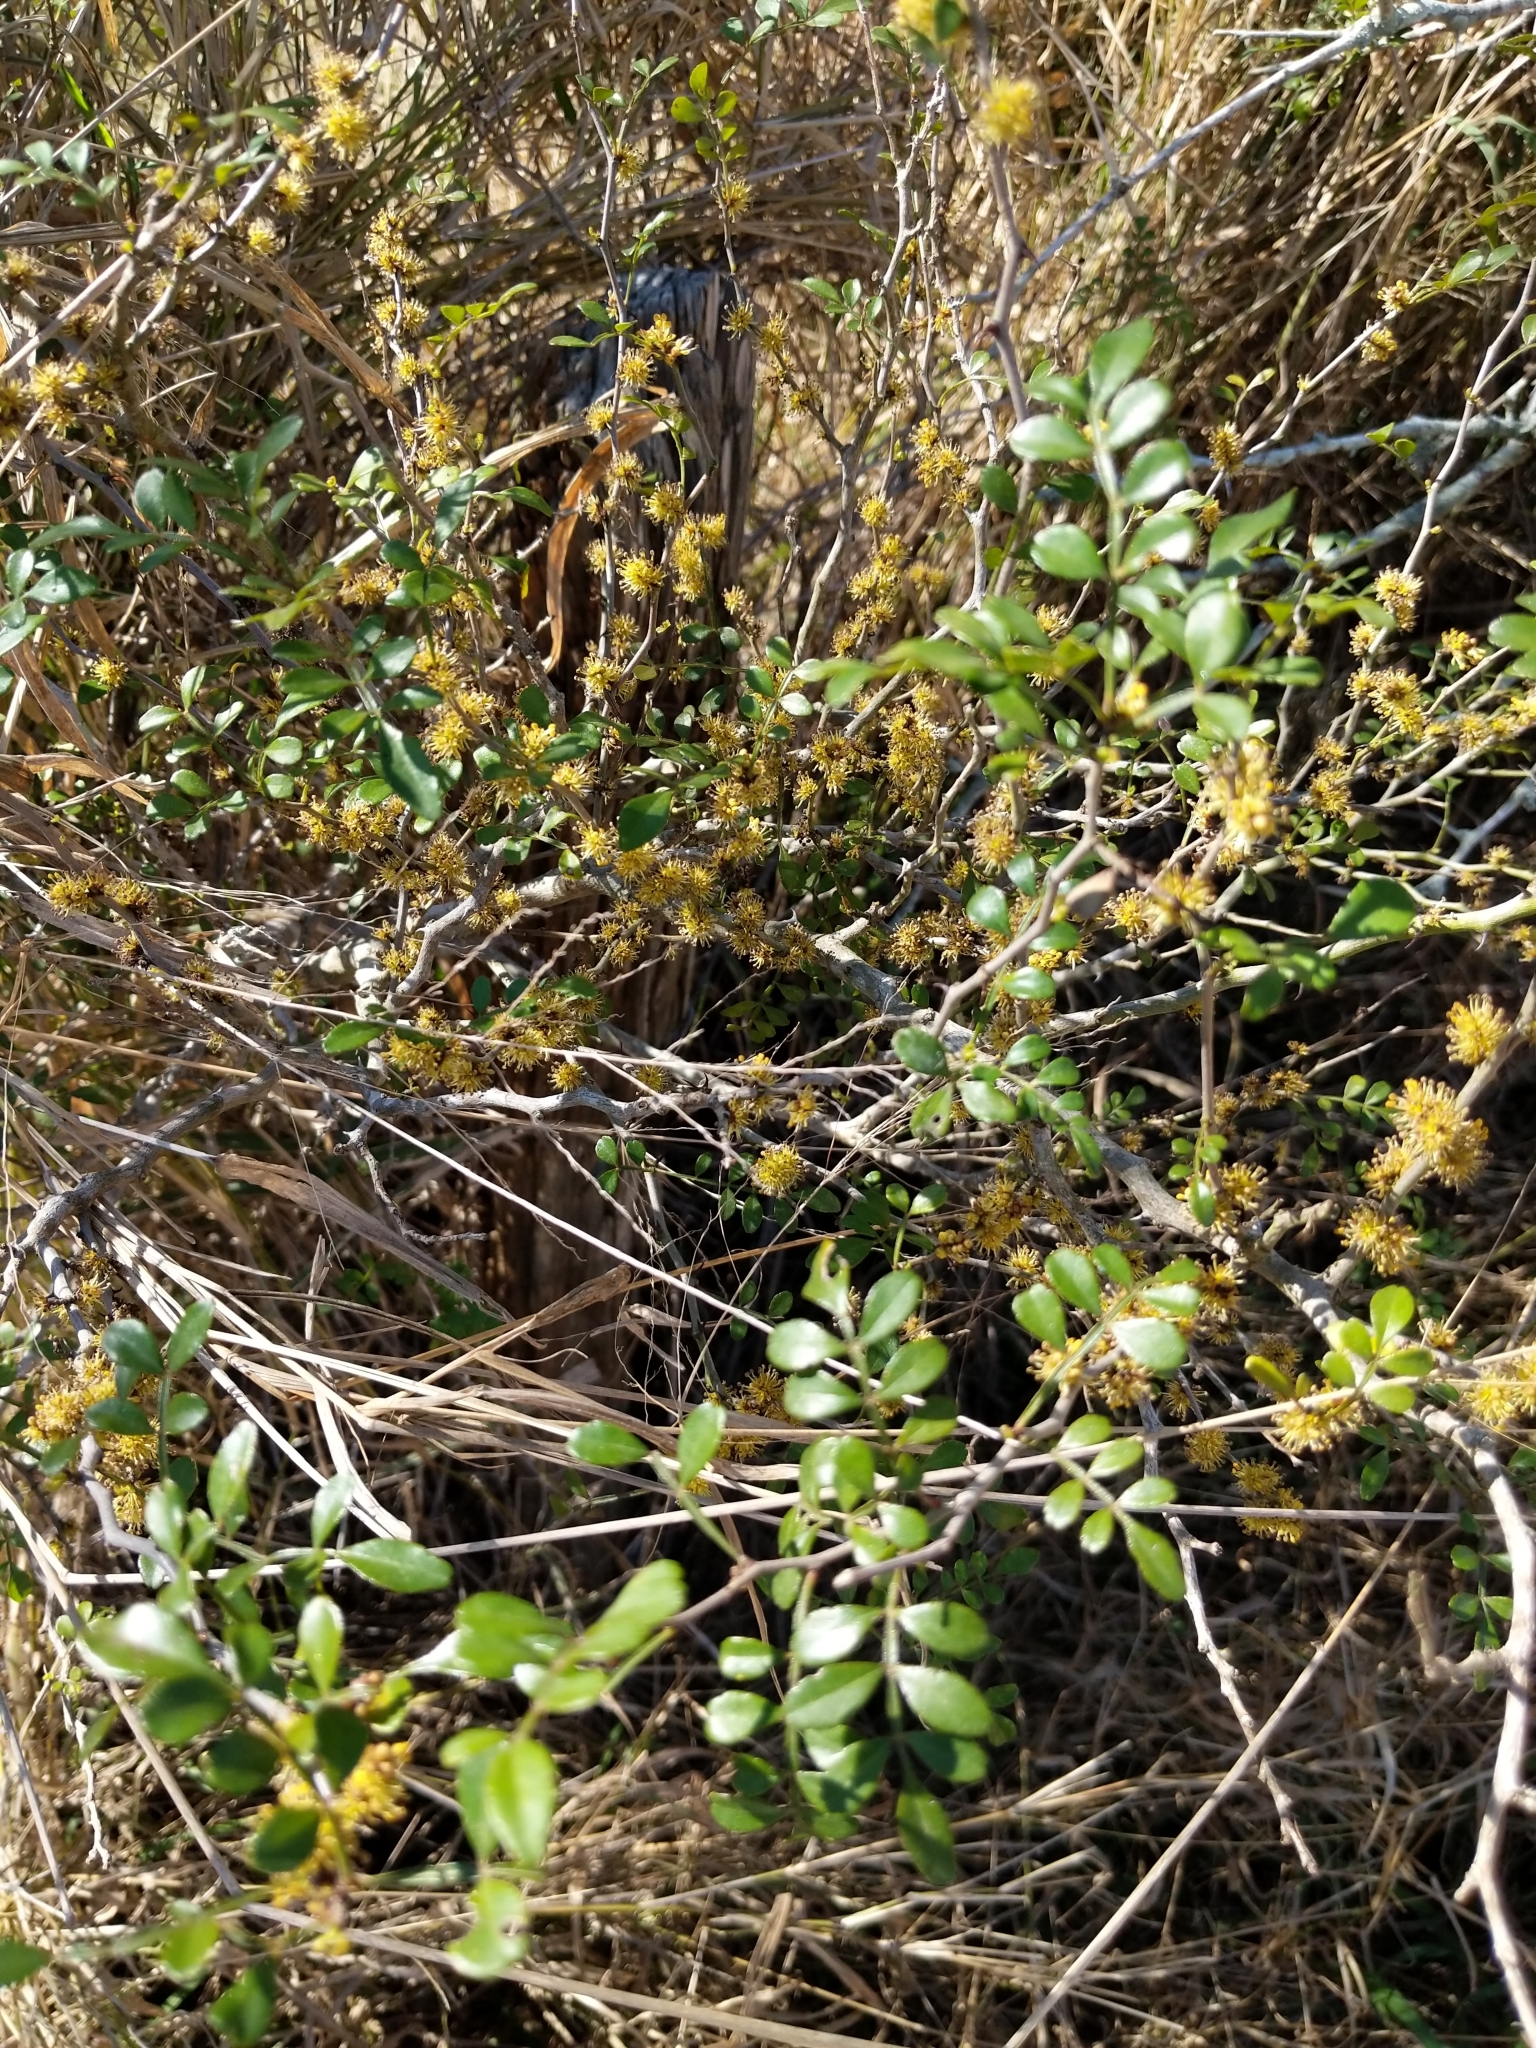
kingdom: Plantae
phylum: Tracheophyta
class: Magnoliopsida
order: Sapindales
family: Rutaceae
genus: Zanthoxylum
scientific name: Zanthoxylum fagara
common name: Lime prickly-ash
